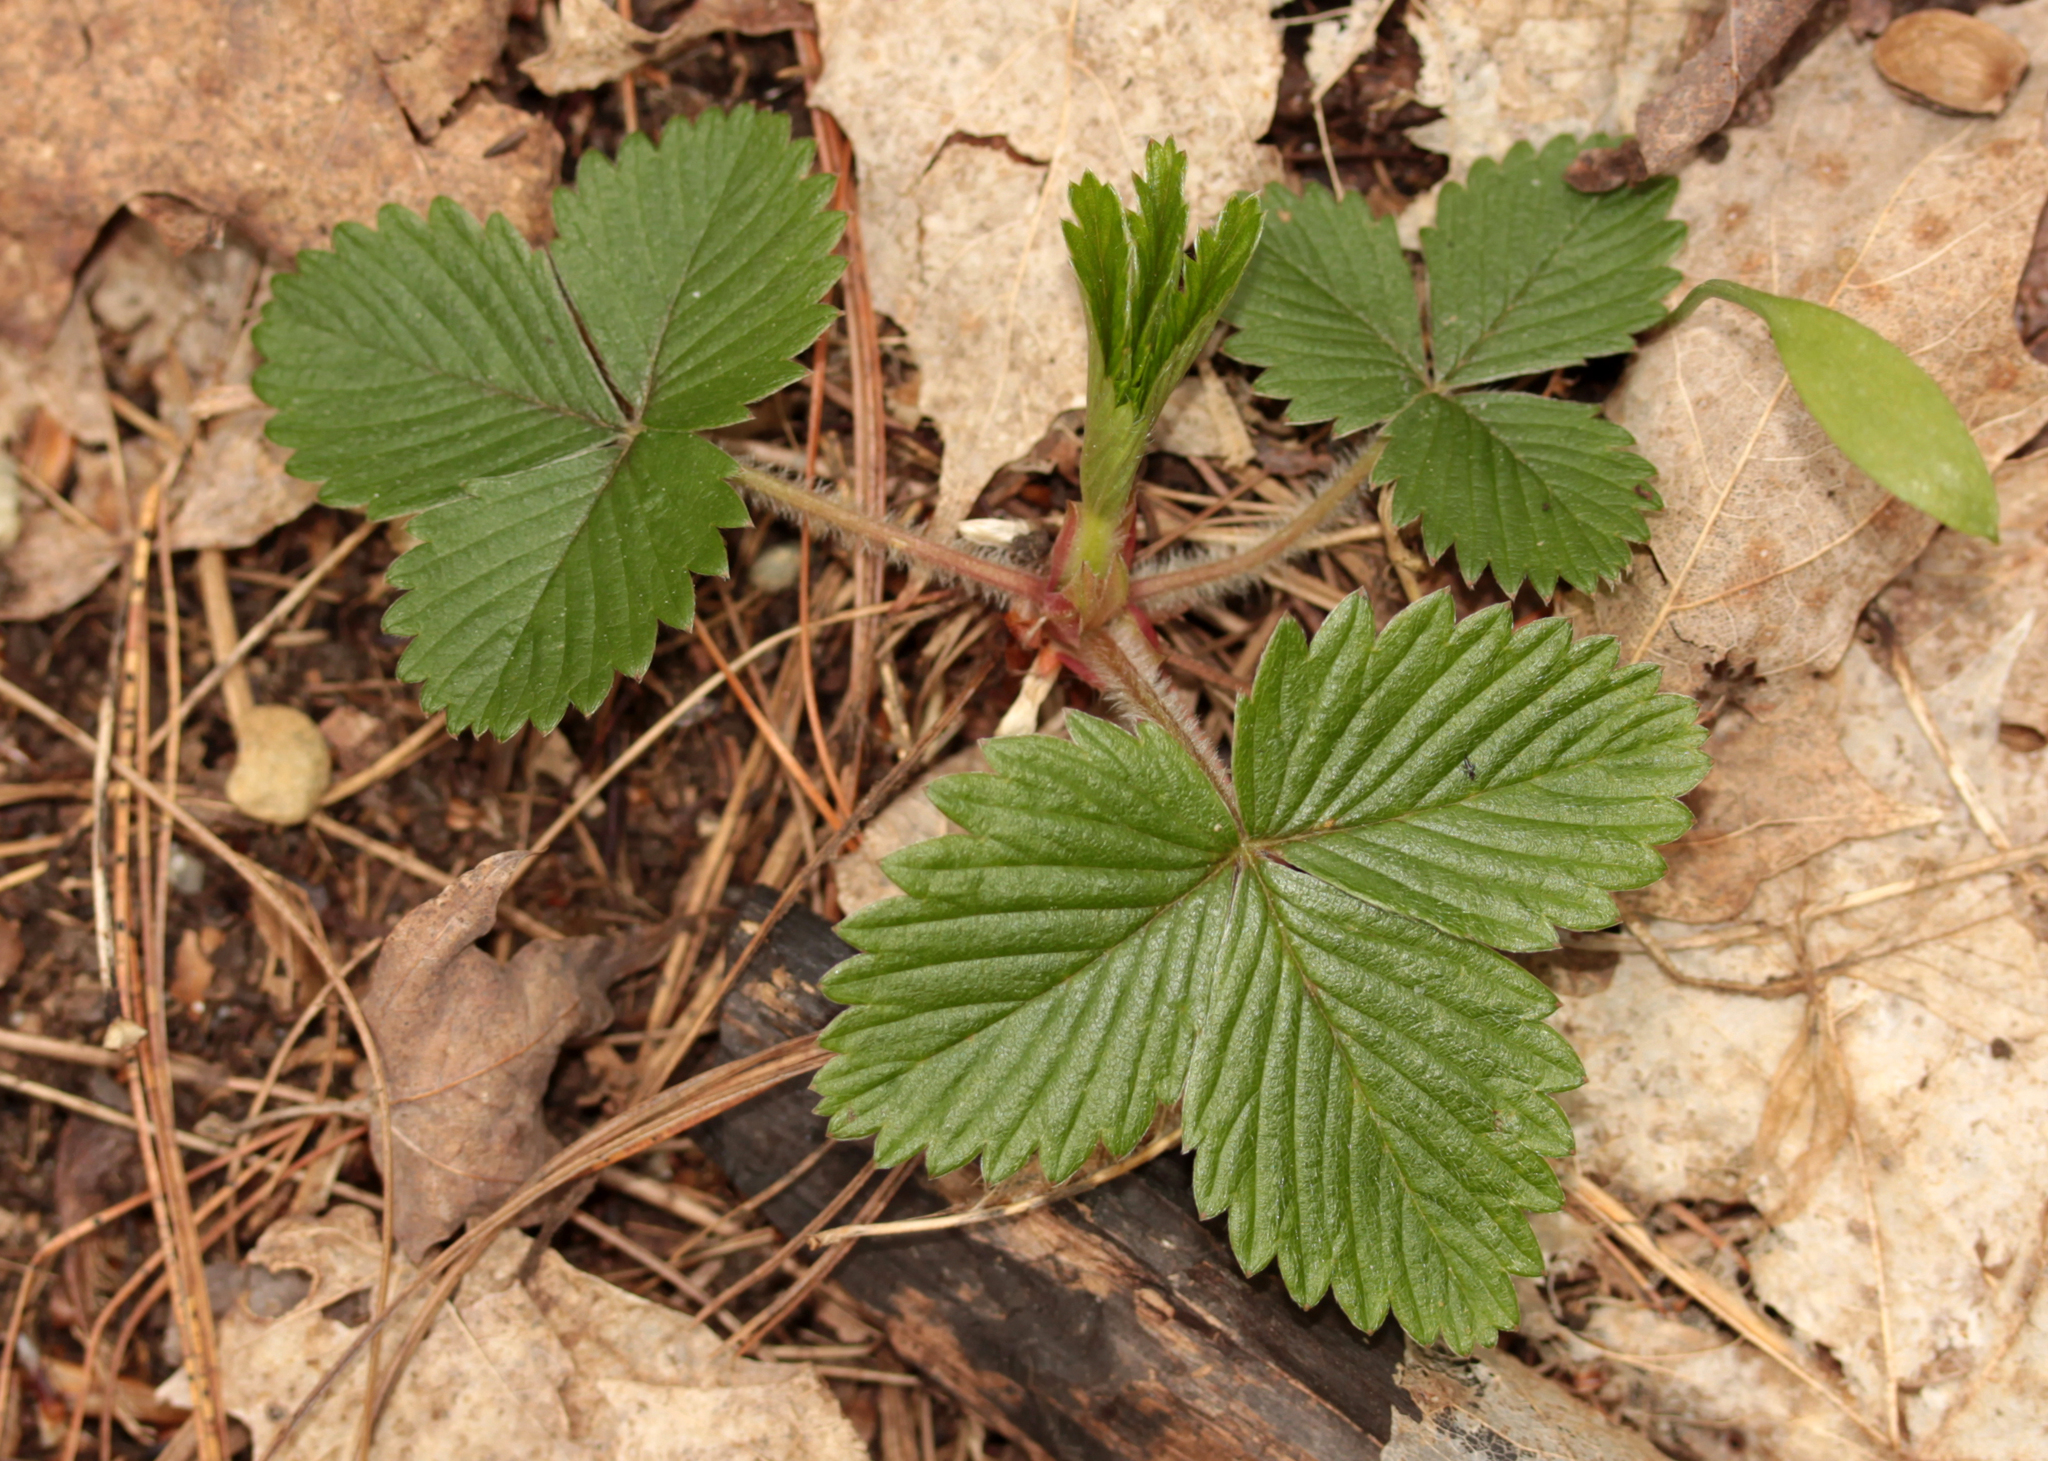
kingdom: Plantae
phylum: Tracheophyta
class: Magnoliopsida
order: Rosales
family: Rosaceae
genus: Fragaria
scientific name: Fragaria virginiana
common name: Thickleaved wild strawberry
